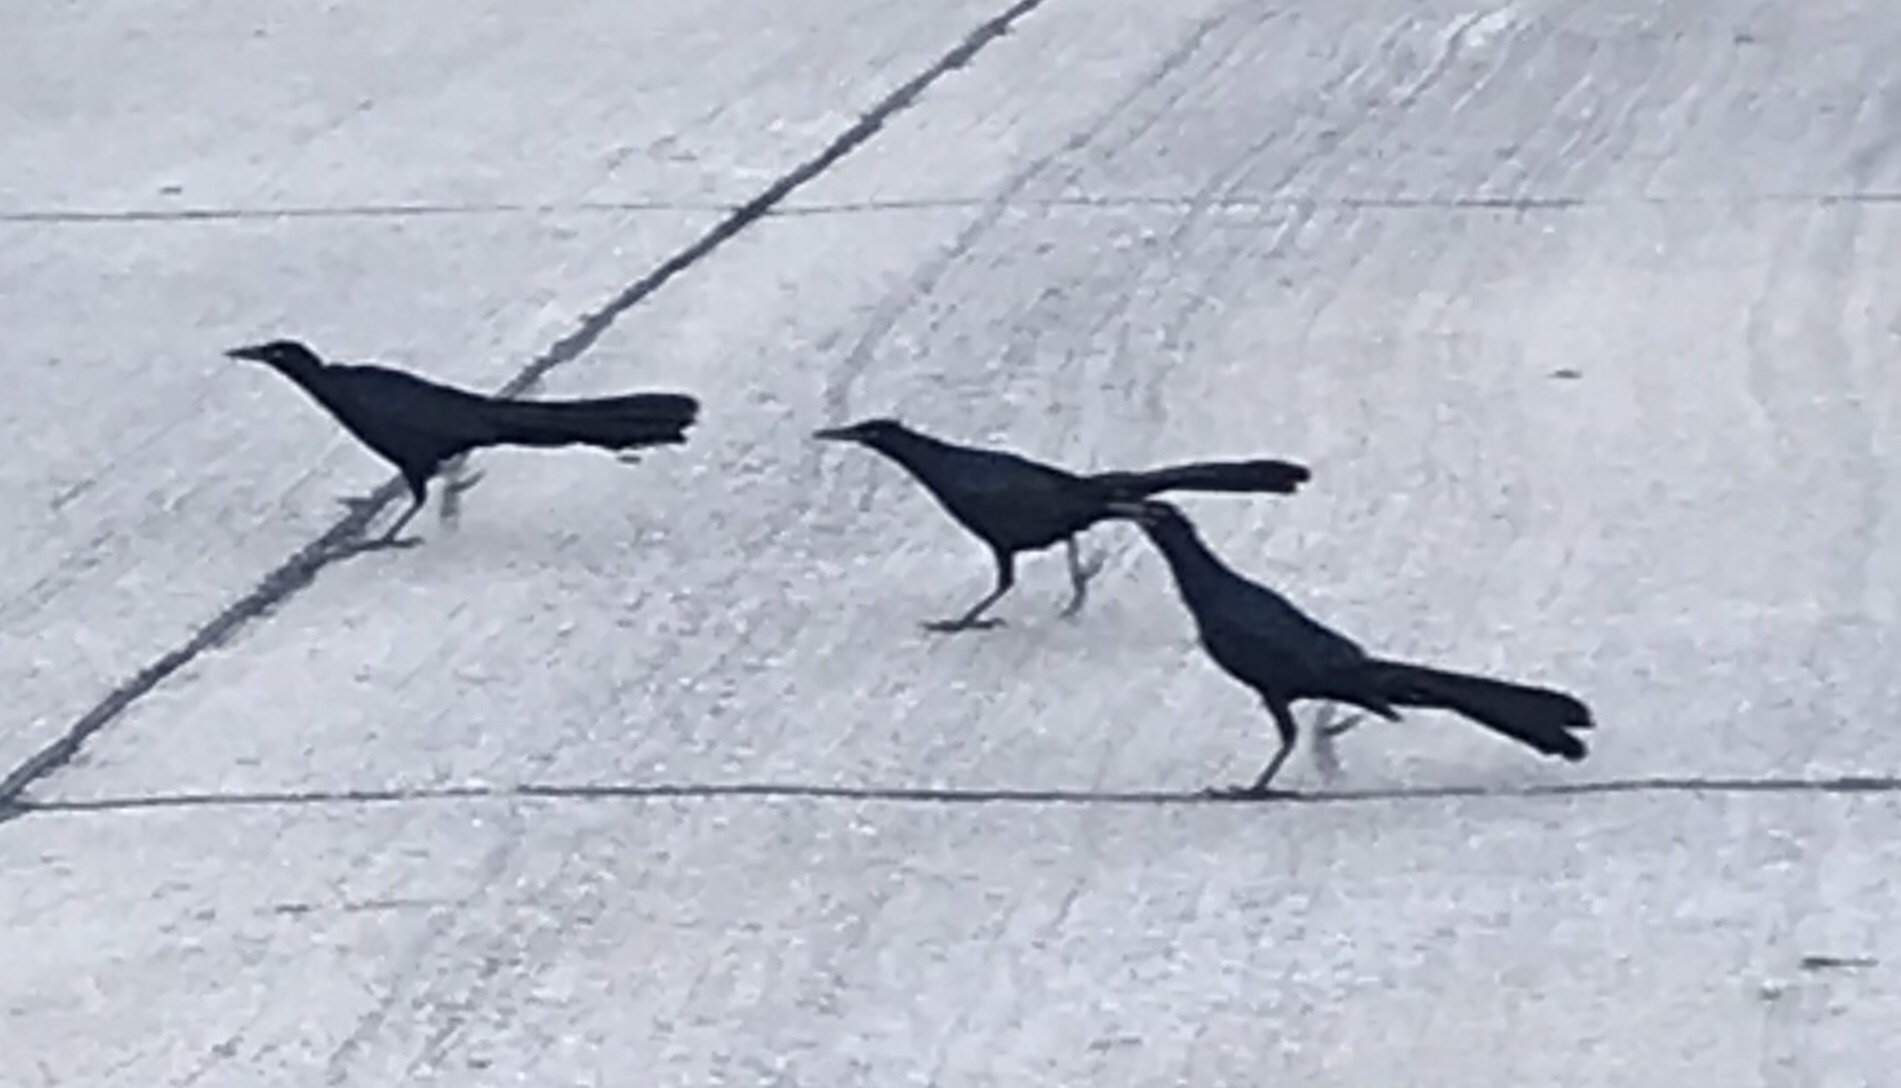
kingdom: Animalia
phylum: Chordata
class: Aves
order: Passeriformes
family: Icteridae
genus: Quiscalus
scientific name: Quiscalus mexicanus
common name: Great-tailed grackle
